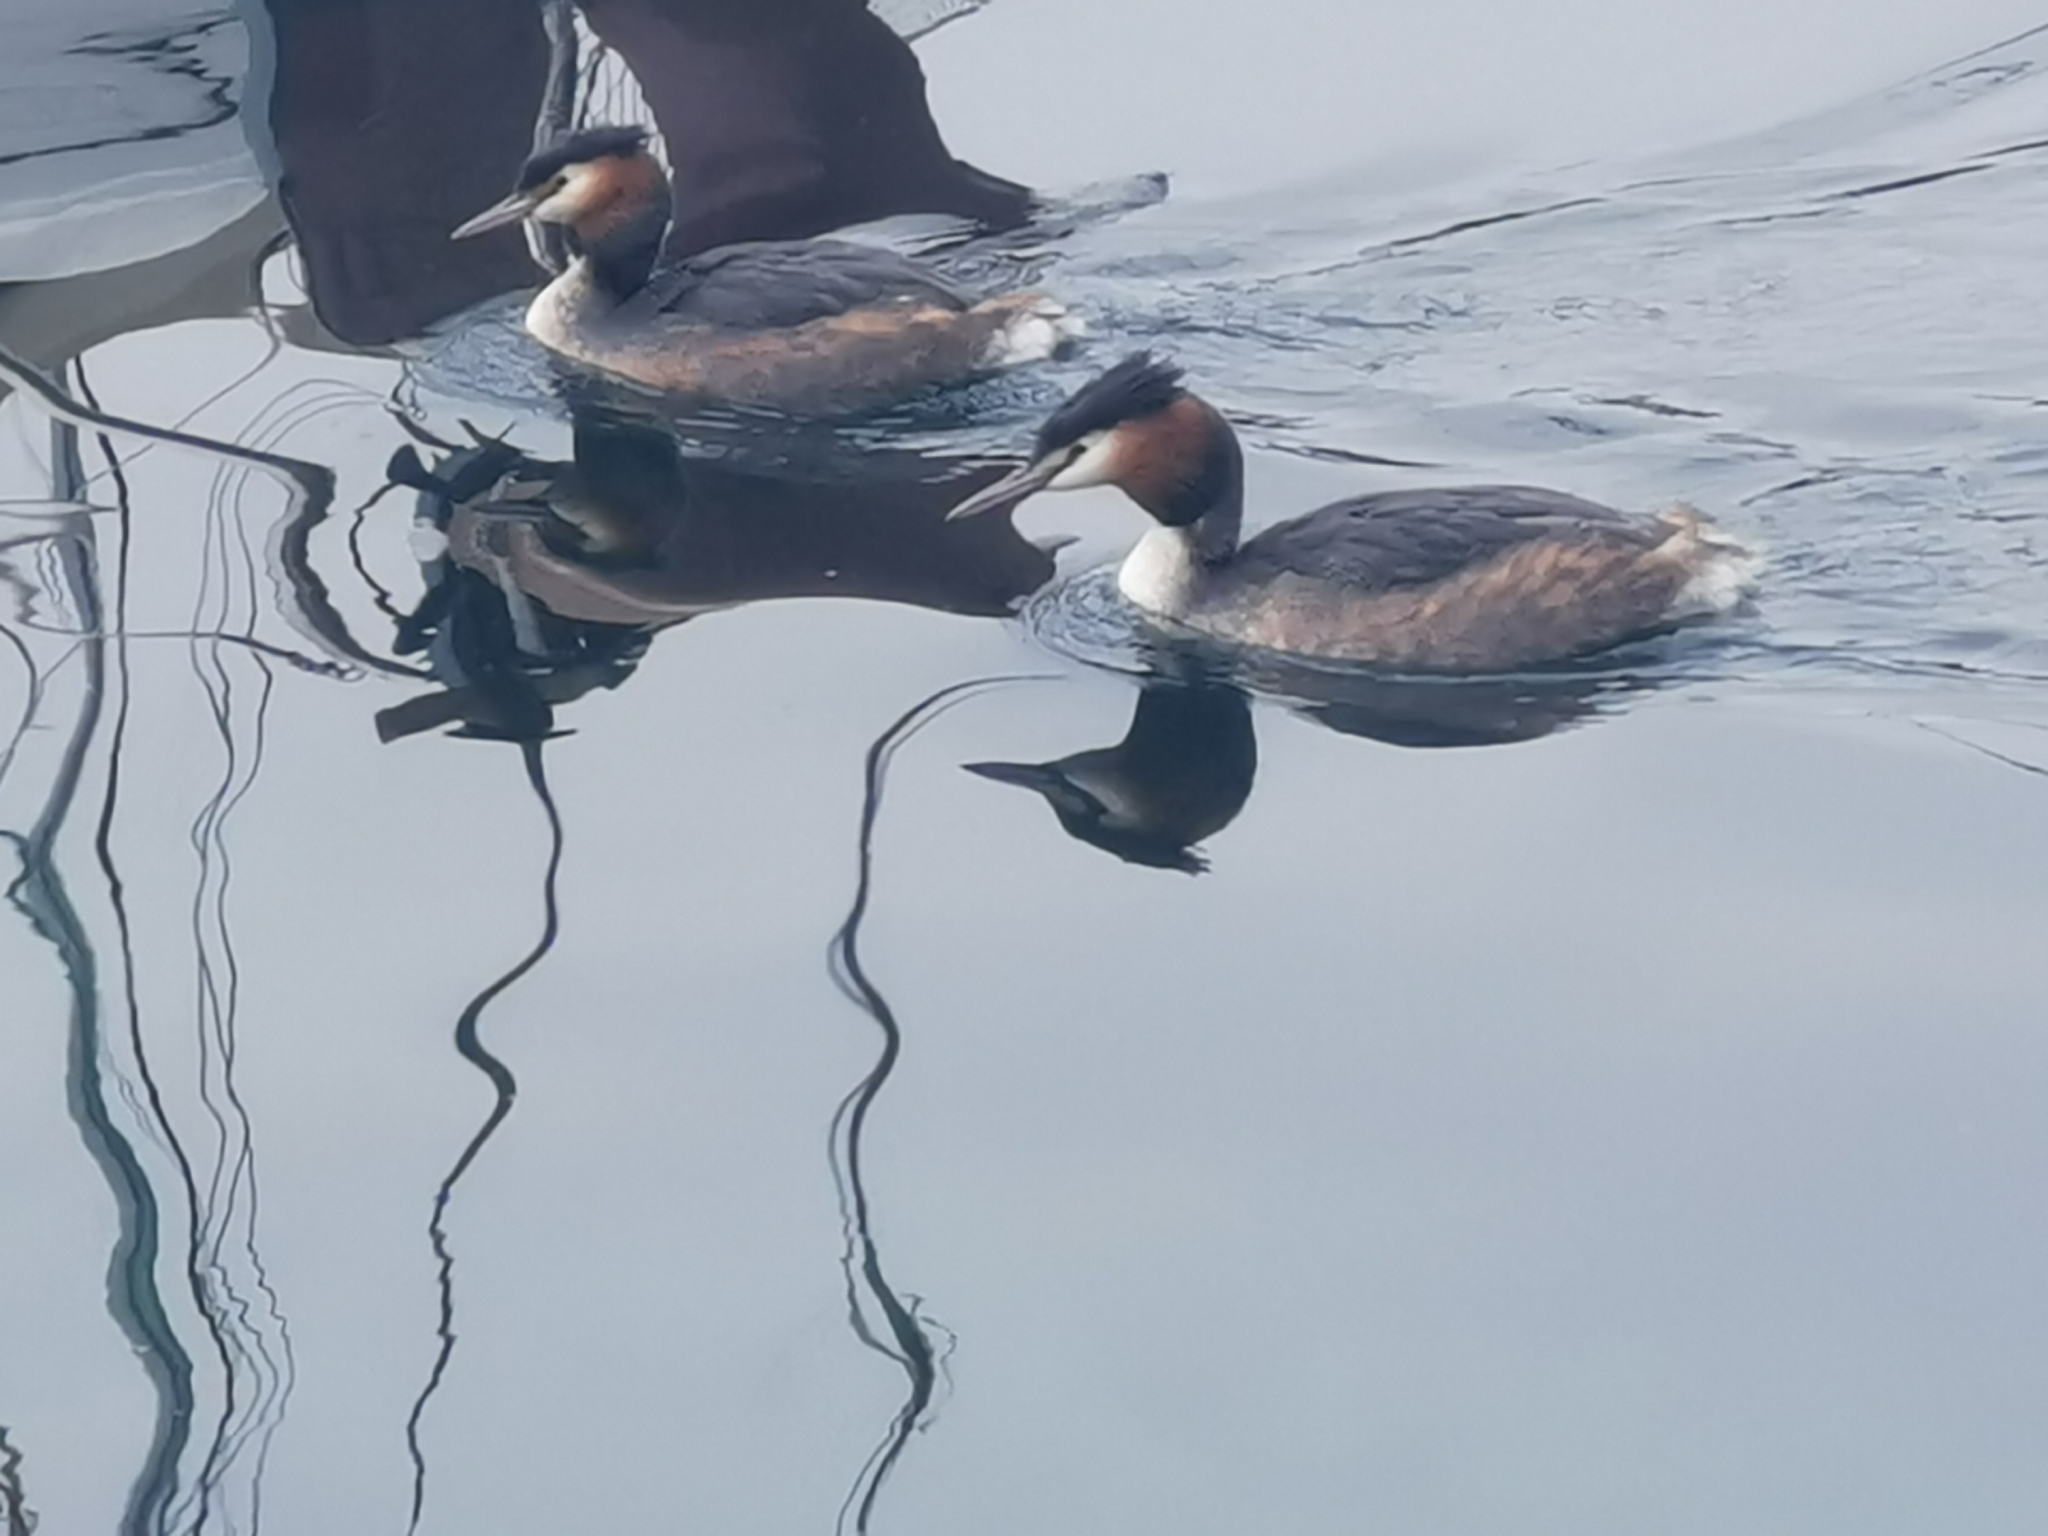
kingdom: Animalia
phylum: Chordata
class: Aves
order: Podicipediformes
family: Podicipedidae
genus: Podiceps
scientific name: Podiceps cristatus
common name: Great crested grebe
